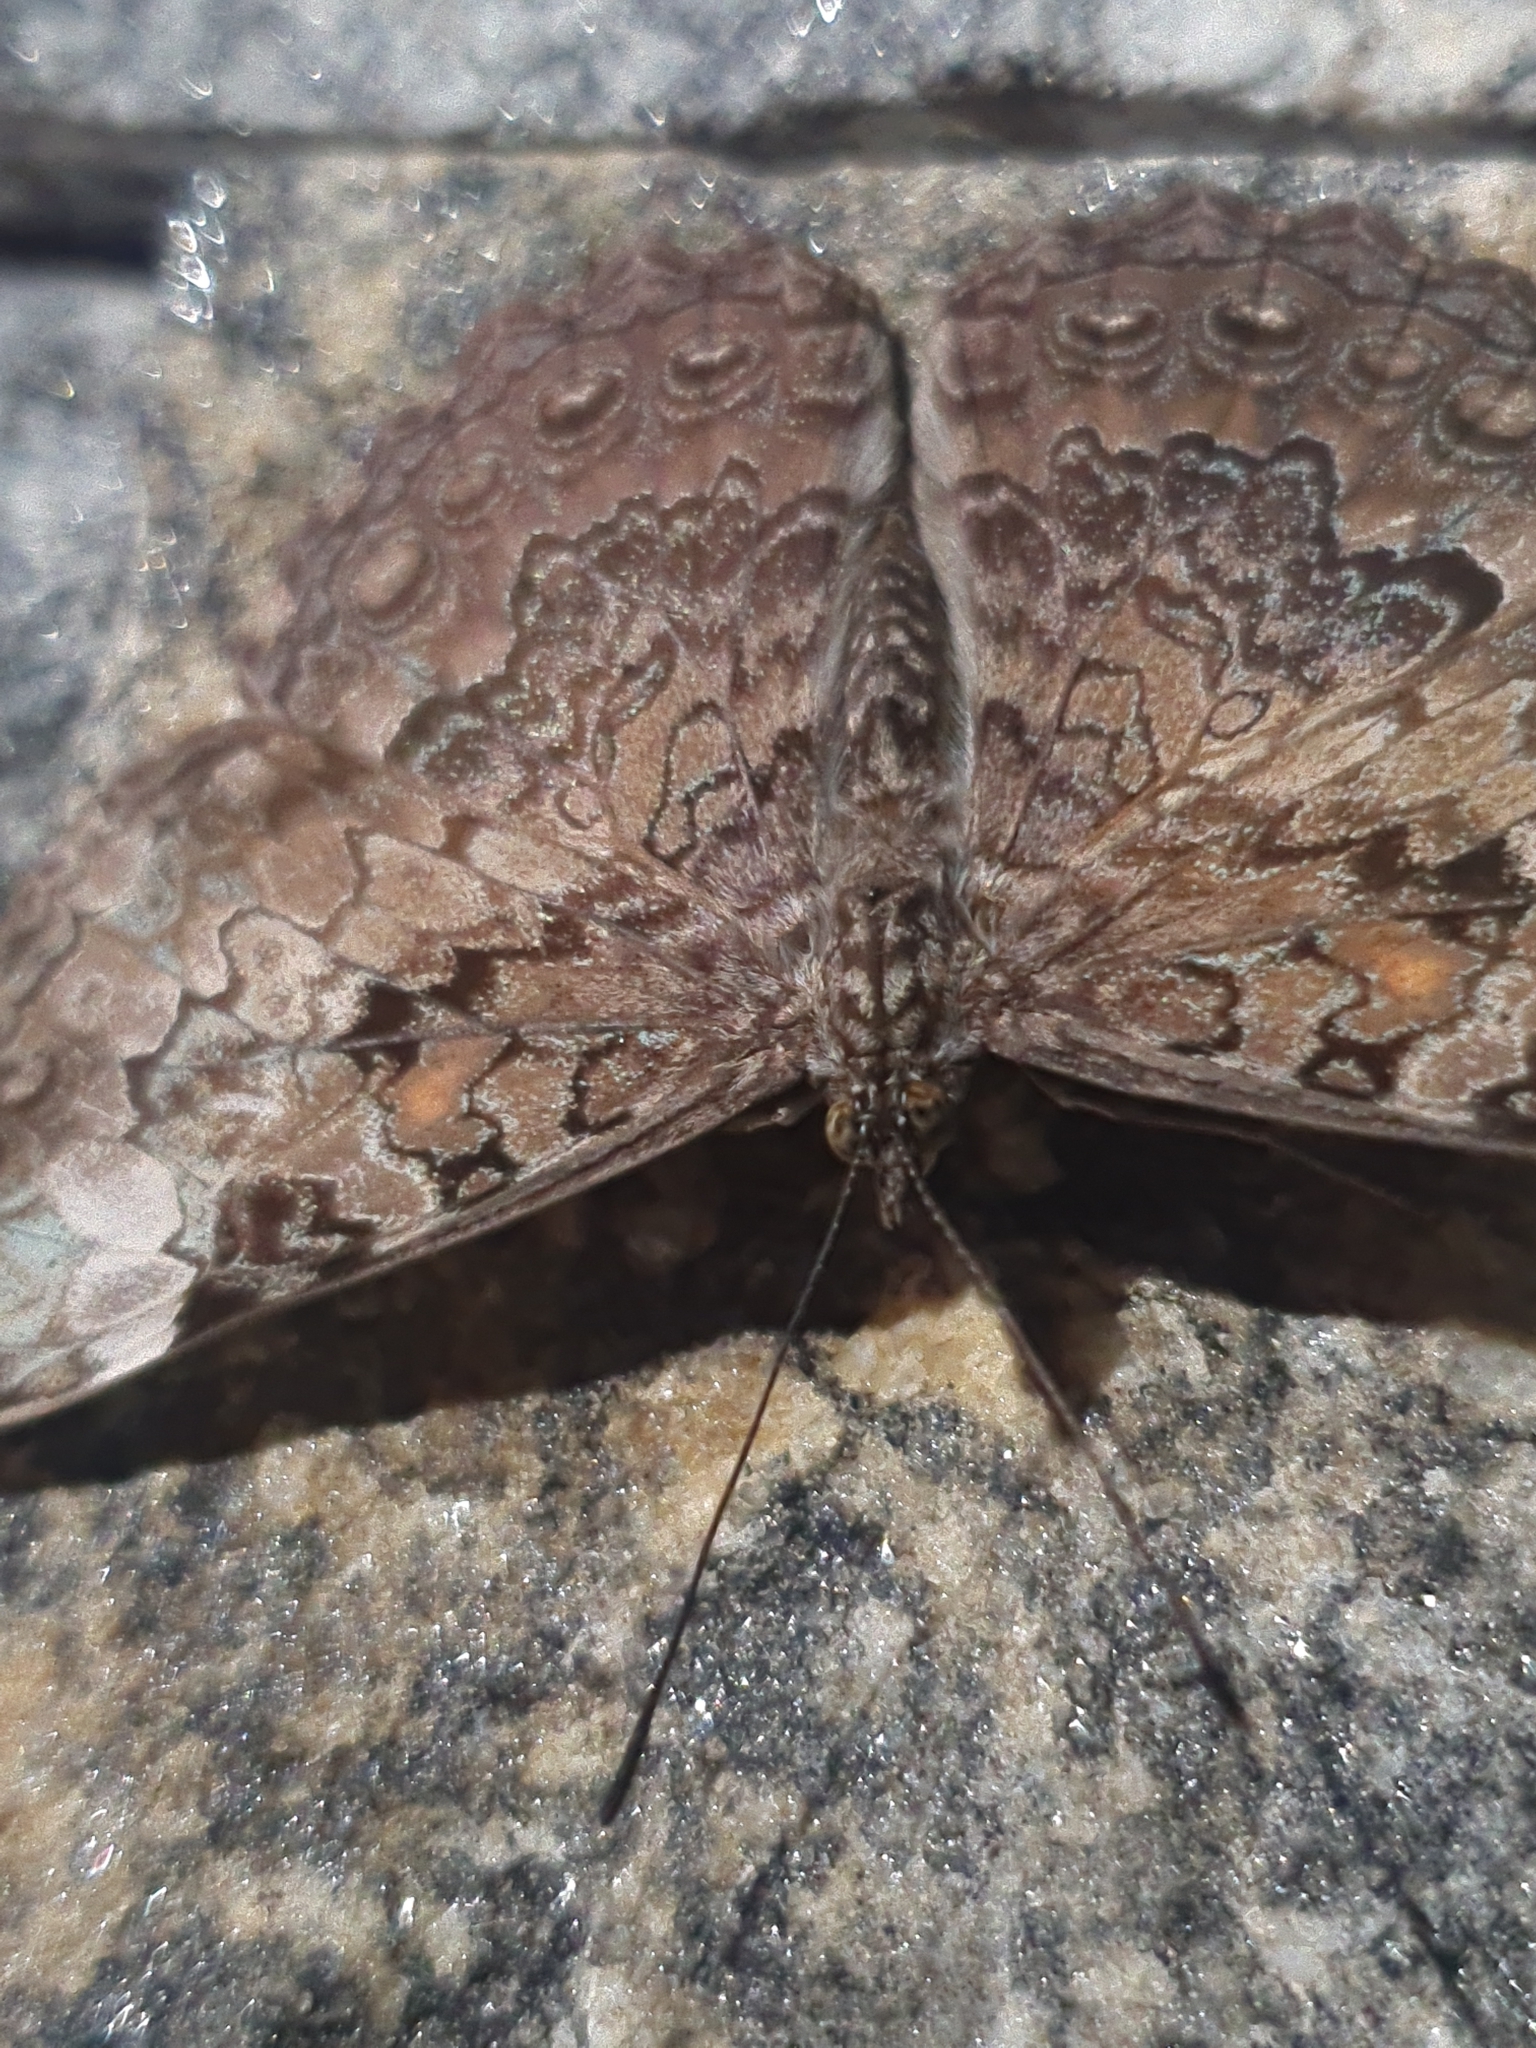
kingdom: Animalia
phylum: Arthropoda
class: Insecta
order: Lepidoptera
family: Nymphalidae
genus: Hamadryas
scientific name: Hamadryas epinome
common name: Epinome cracker
